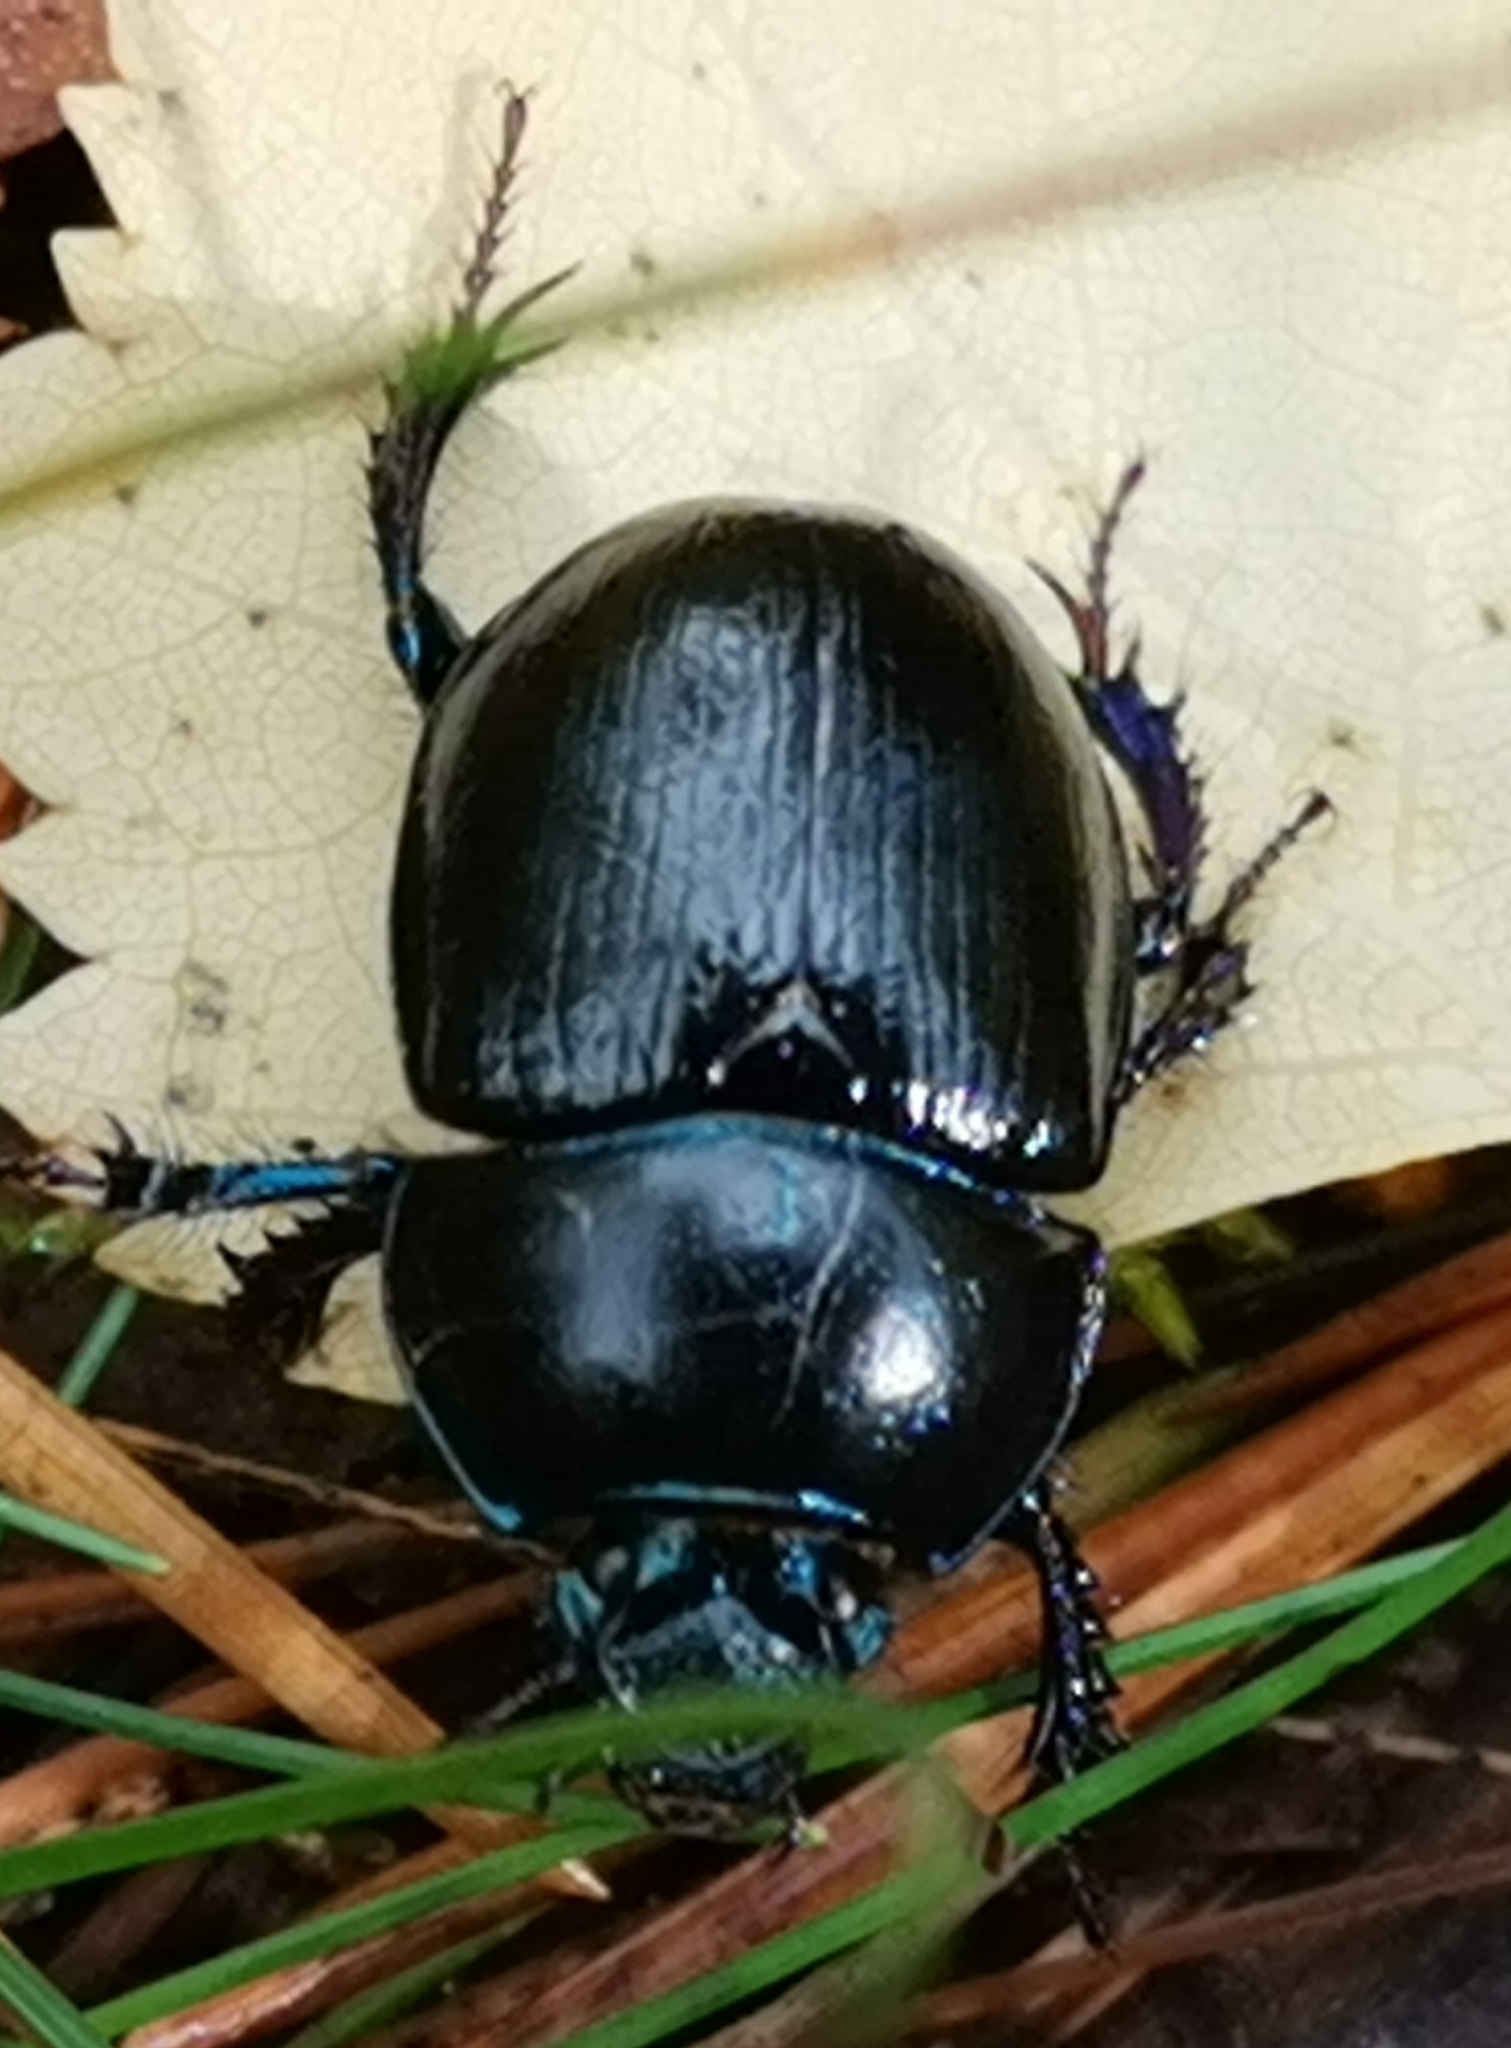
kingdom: Animalia
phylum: Arthropoda
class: Insecta
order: Coleoptera
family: Geotrupidae
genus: Anoplotrupes
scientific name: Anoplotrupes stercorosus
